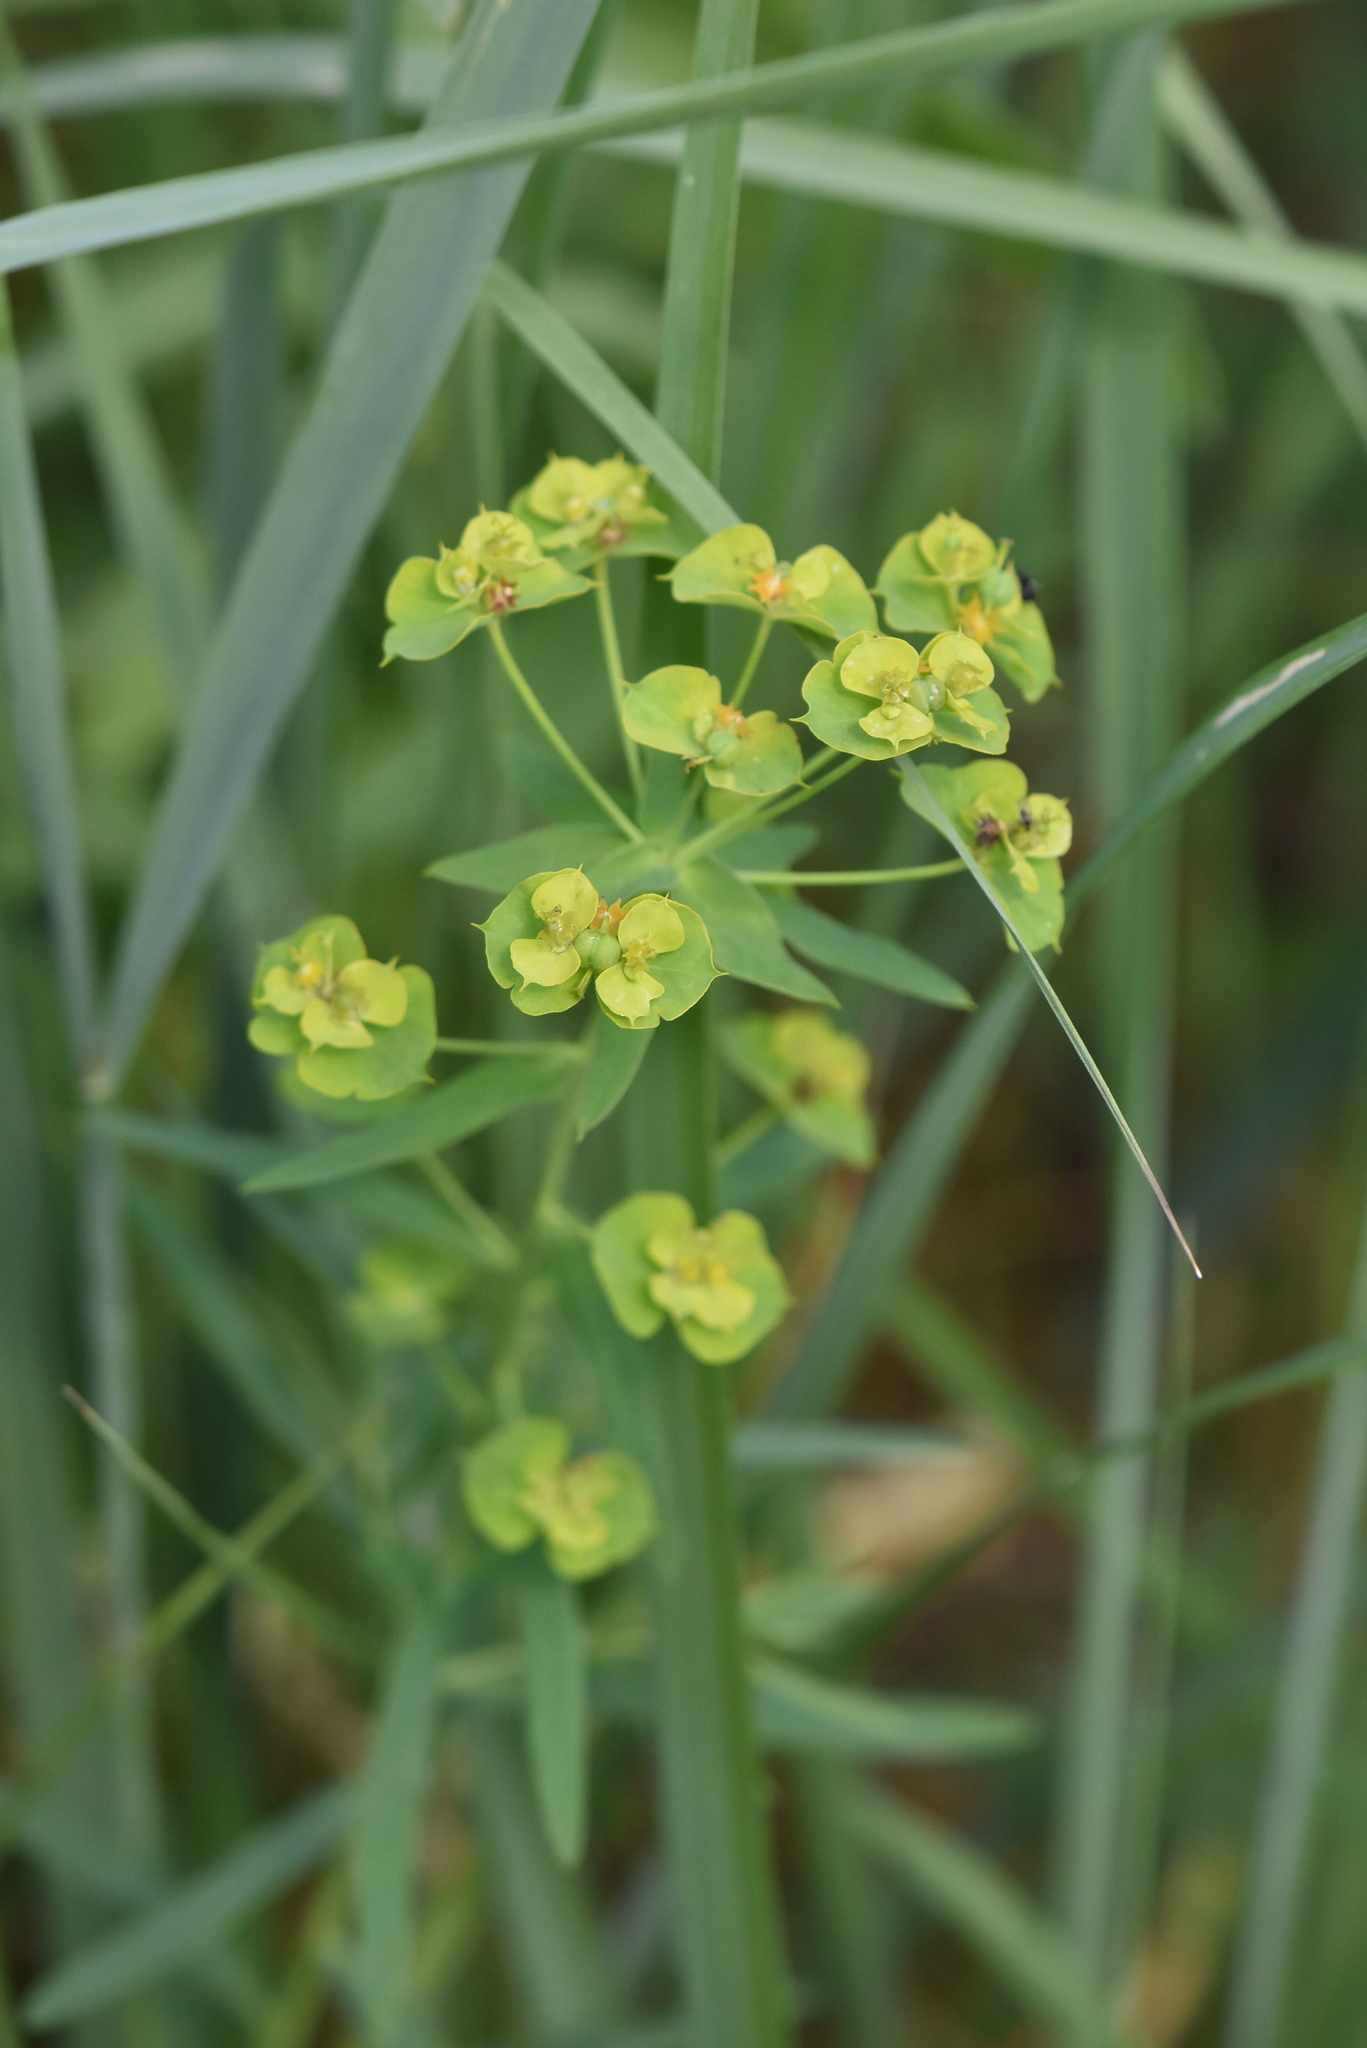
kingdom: Plantae
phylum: Tracheophyta
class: Magnoliopsida
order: Malpighiales
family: Euphorbiaceae
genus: Euphorbia
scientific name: Euphorbia virgata
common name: Leafy spurge
